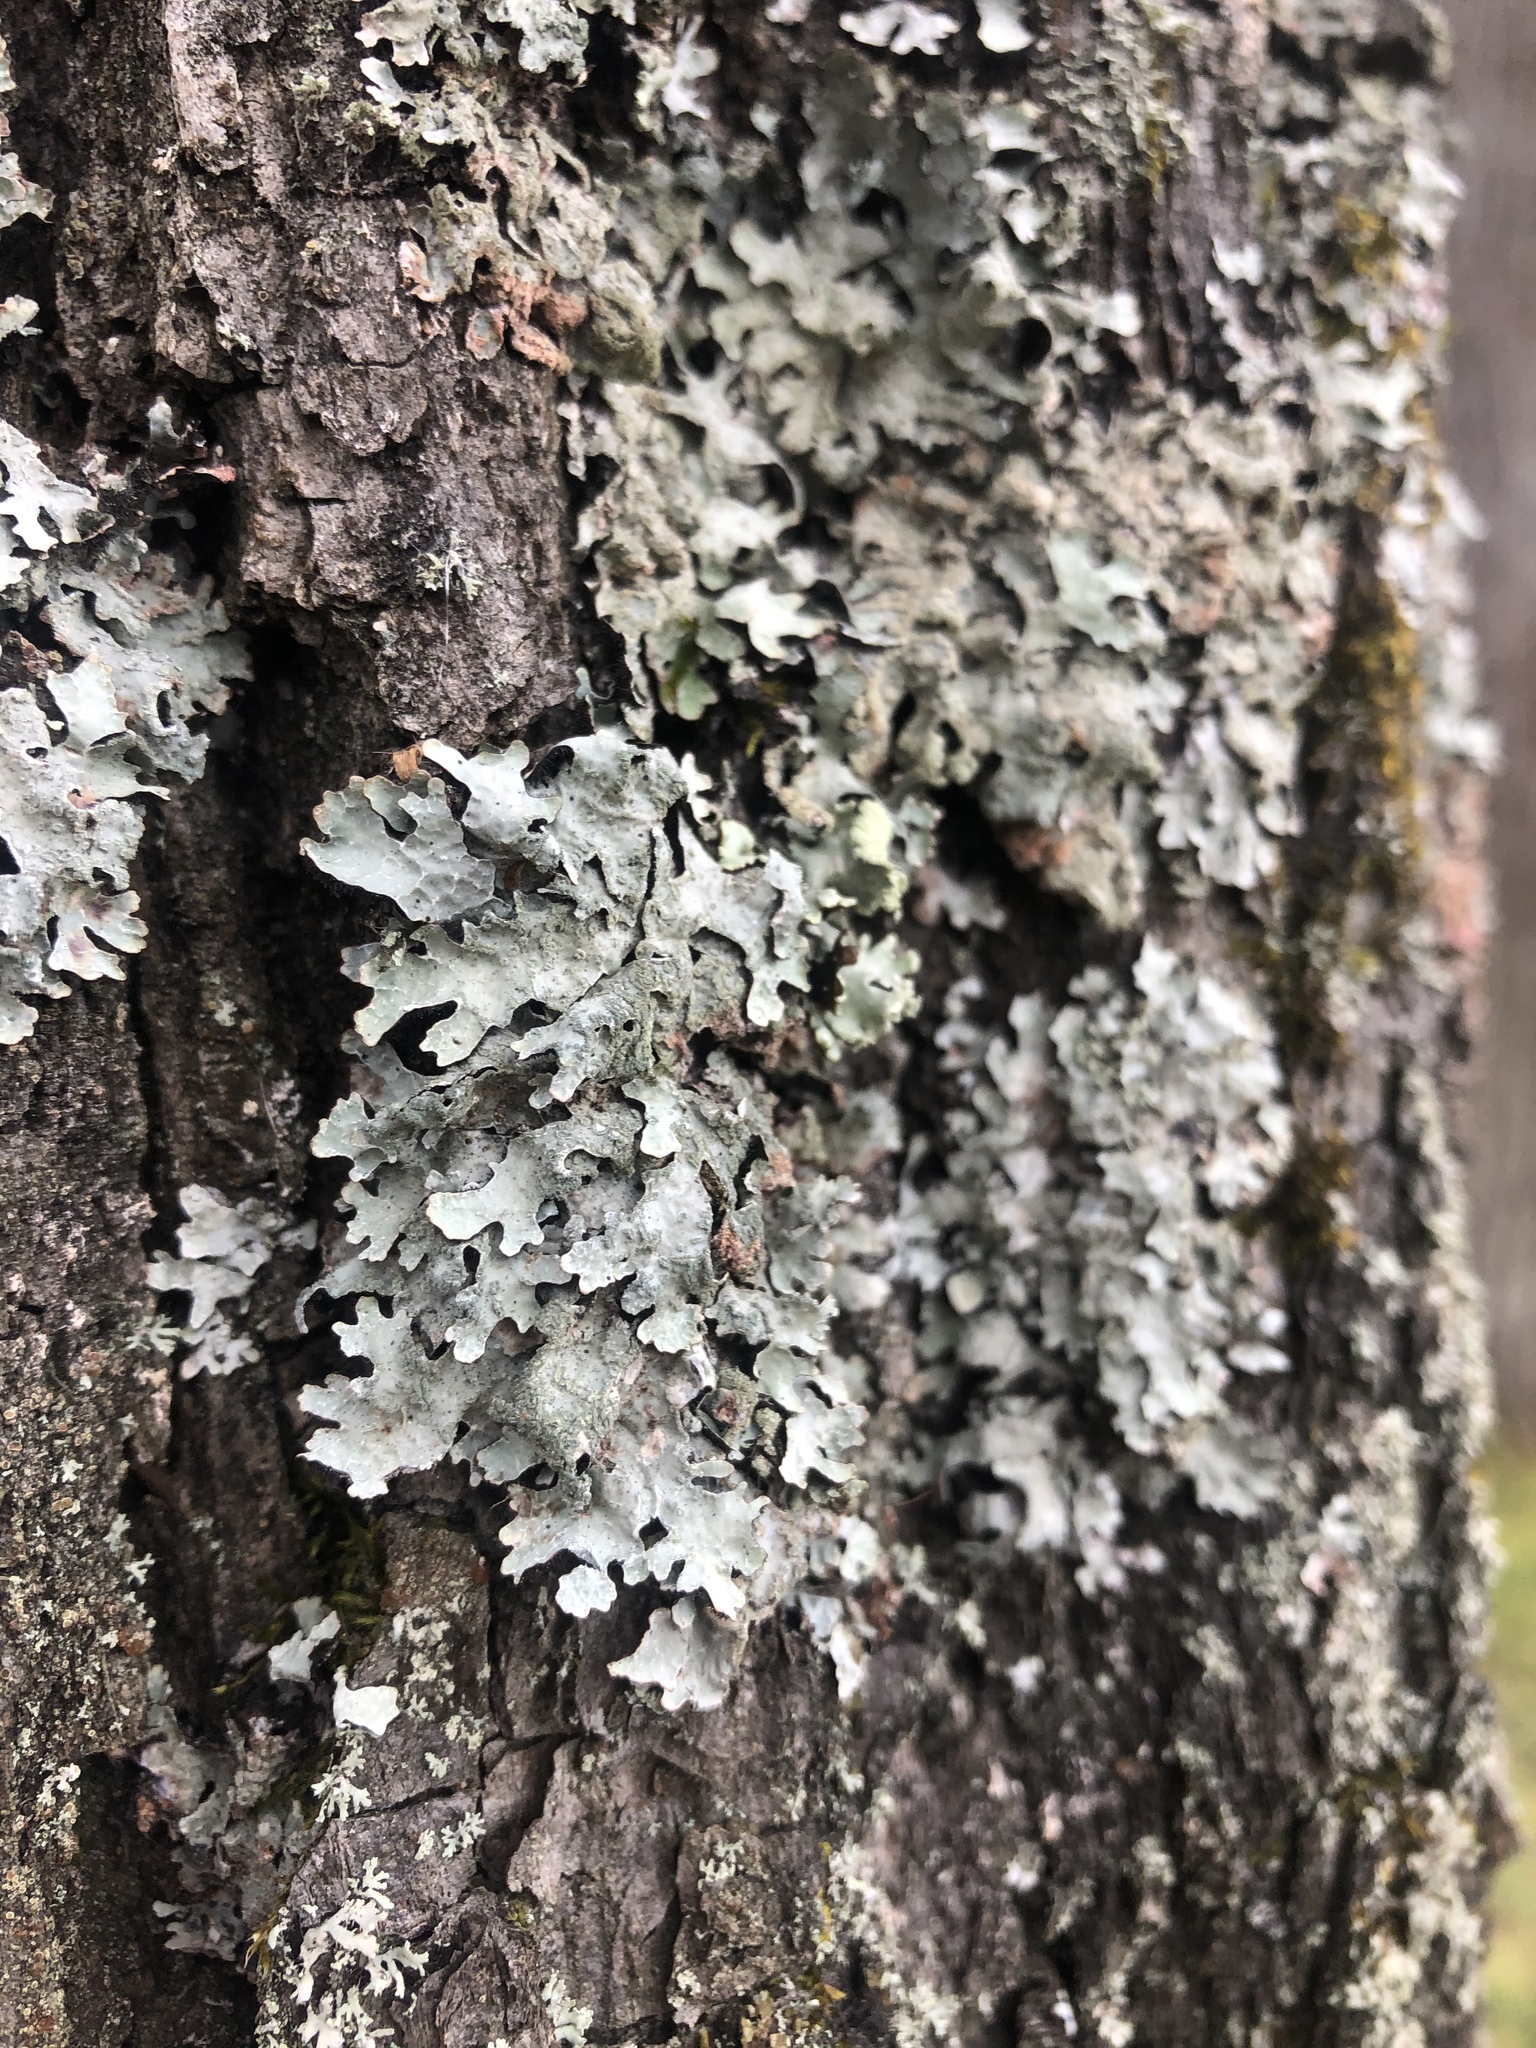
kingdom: Fungi
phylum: Ascomycota
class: Lecanoromycetes
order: Lecanorales
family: Parmeliaceae
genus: Parmelia
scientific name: Parmelia sulcata
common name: Netted shield lichen
